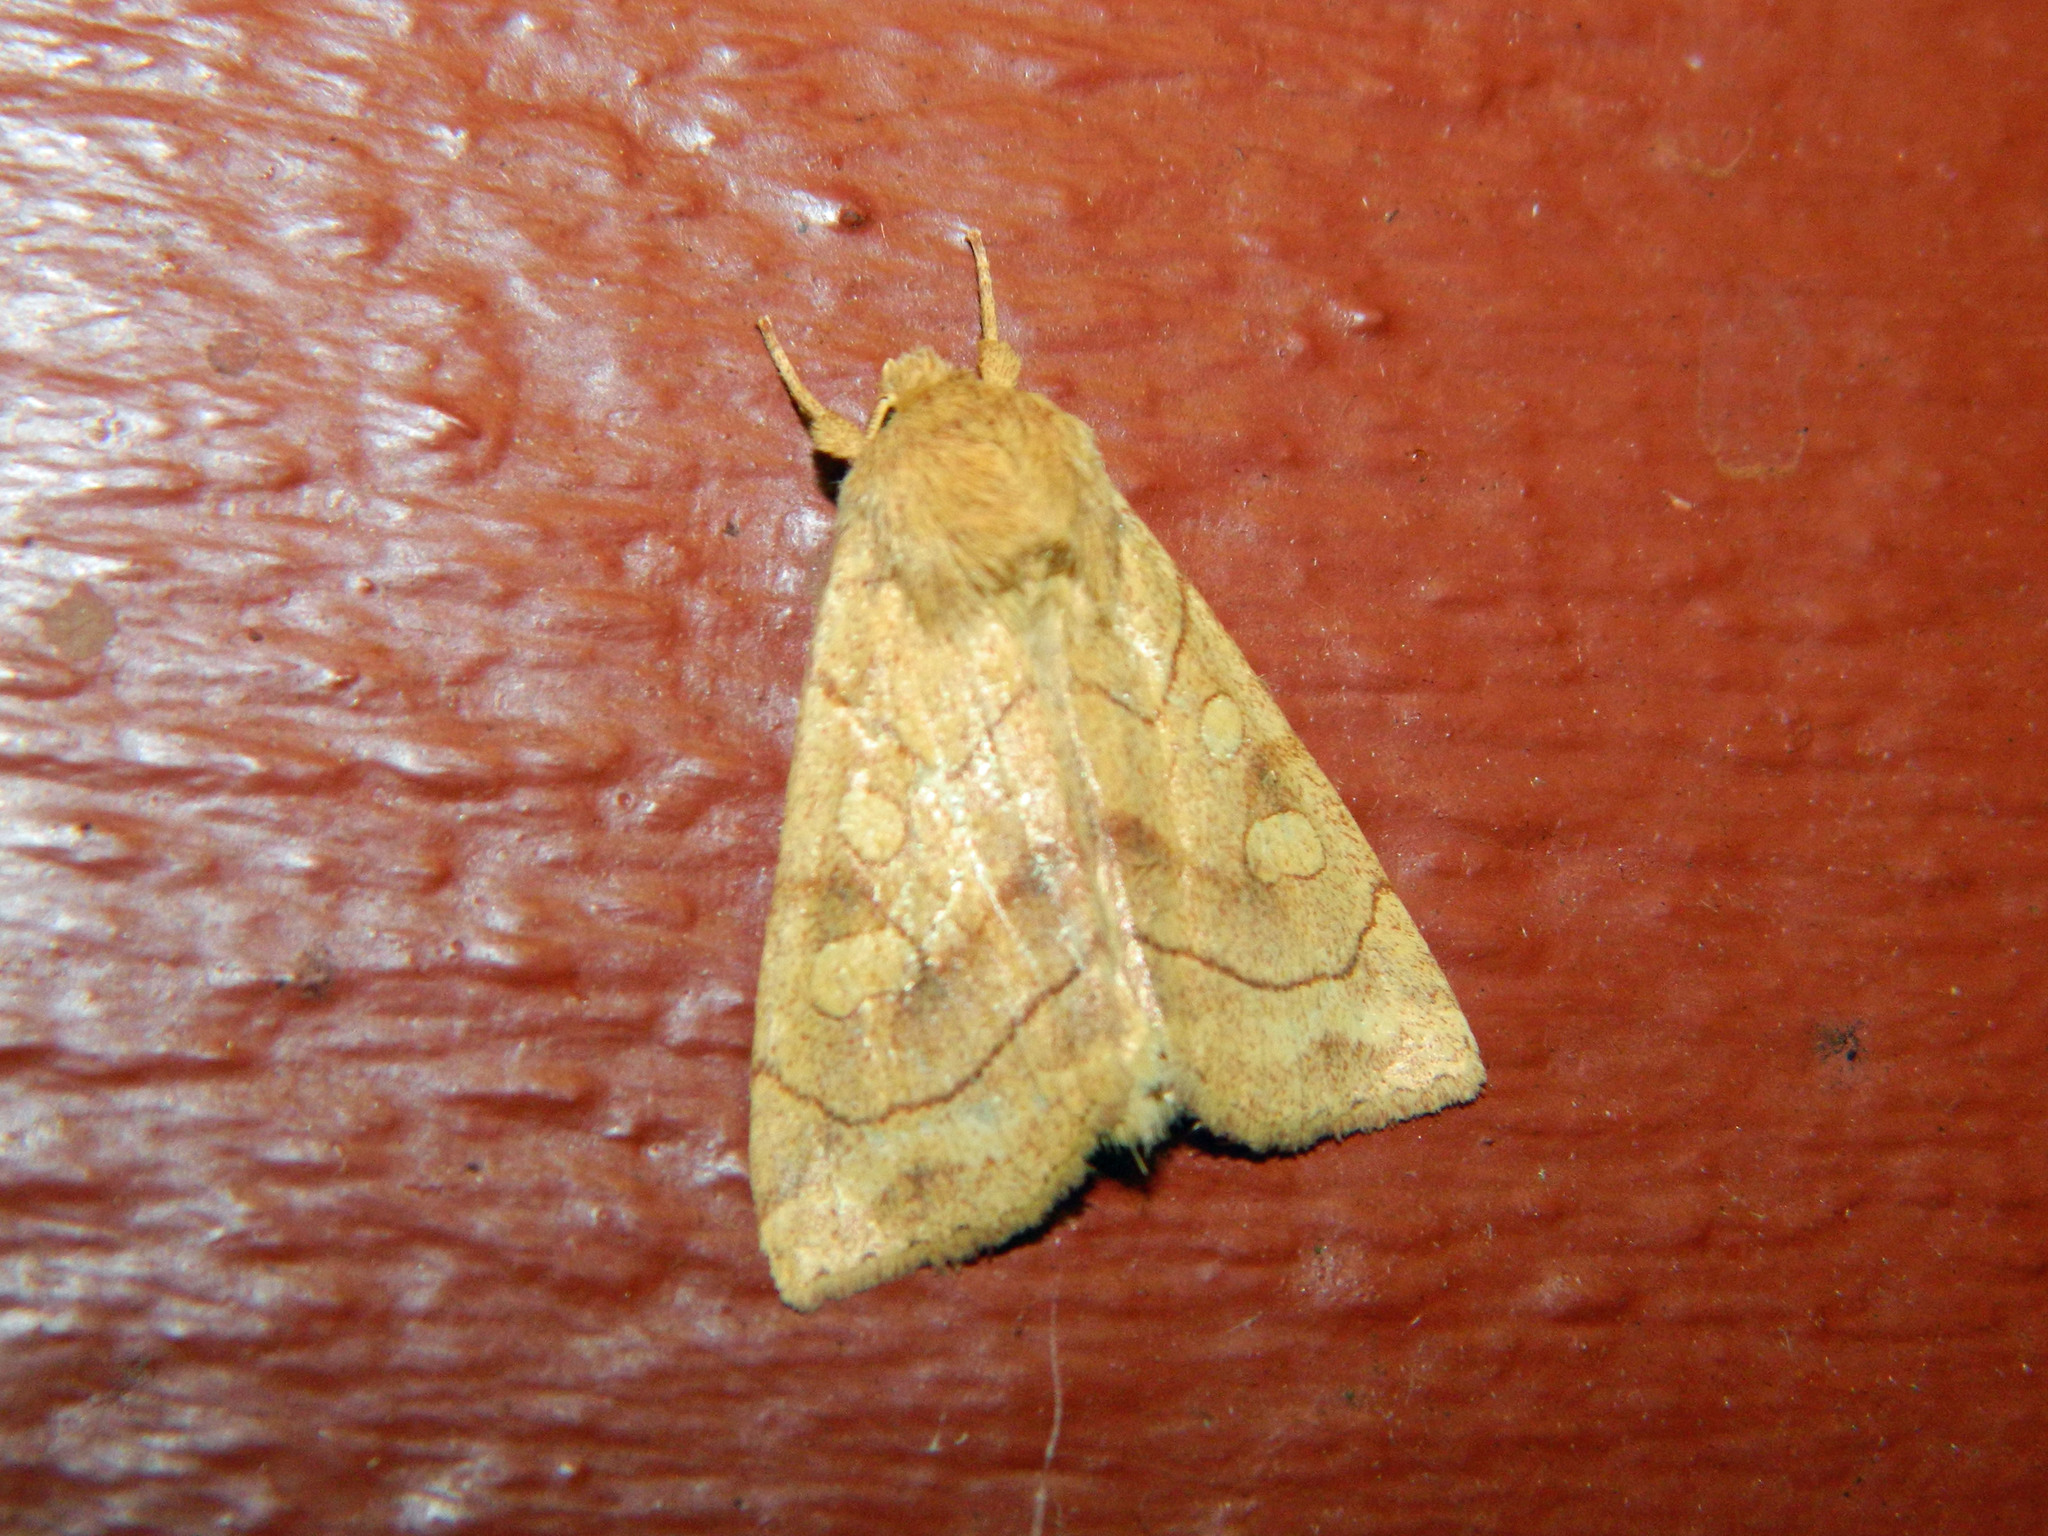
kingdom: Animalia
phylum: Arthropoda
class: Insecta
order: Lepidoptera
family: Noctuidae
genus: Enargia
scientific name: Enargia decolor
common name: Aspen twoleaf tier moth
